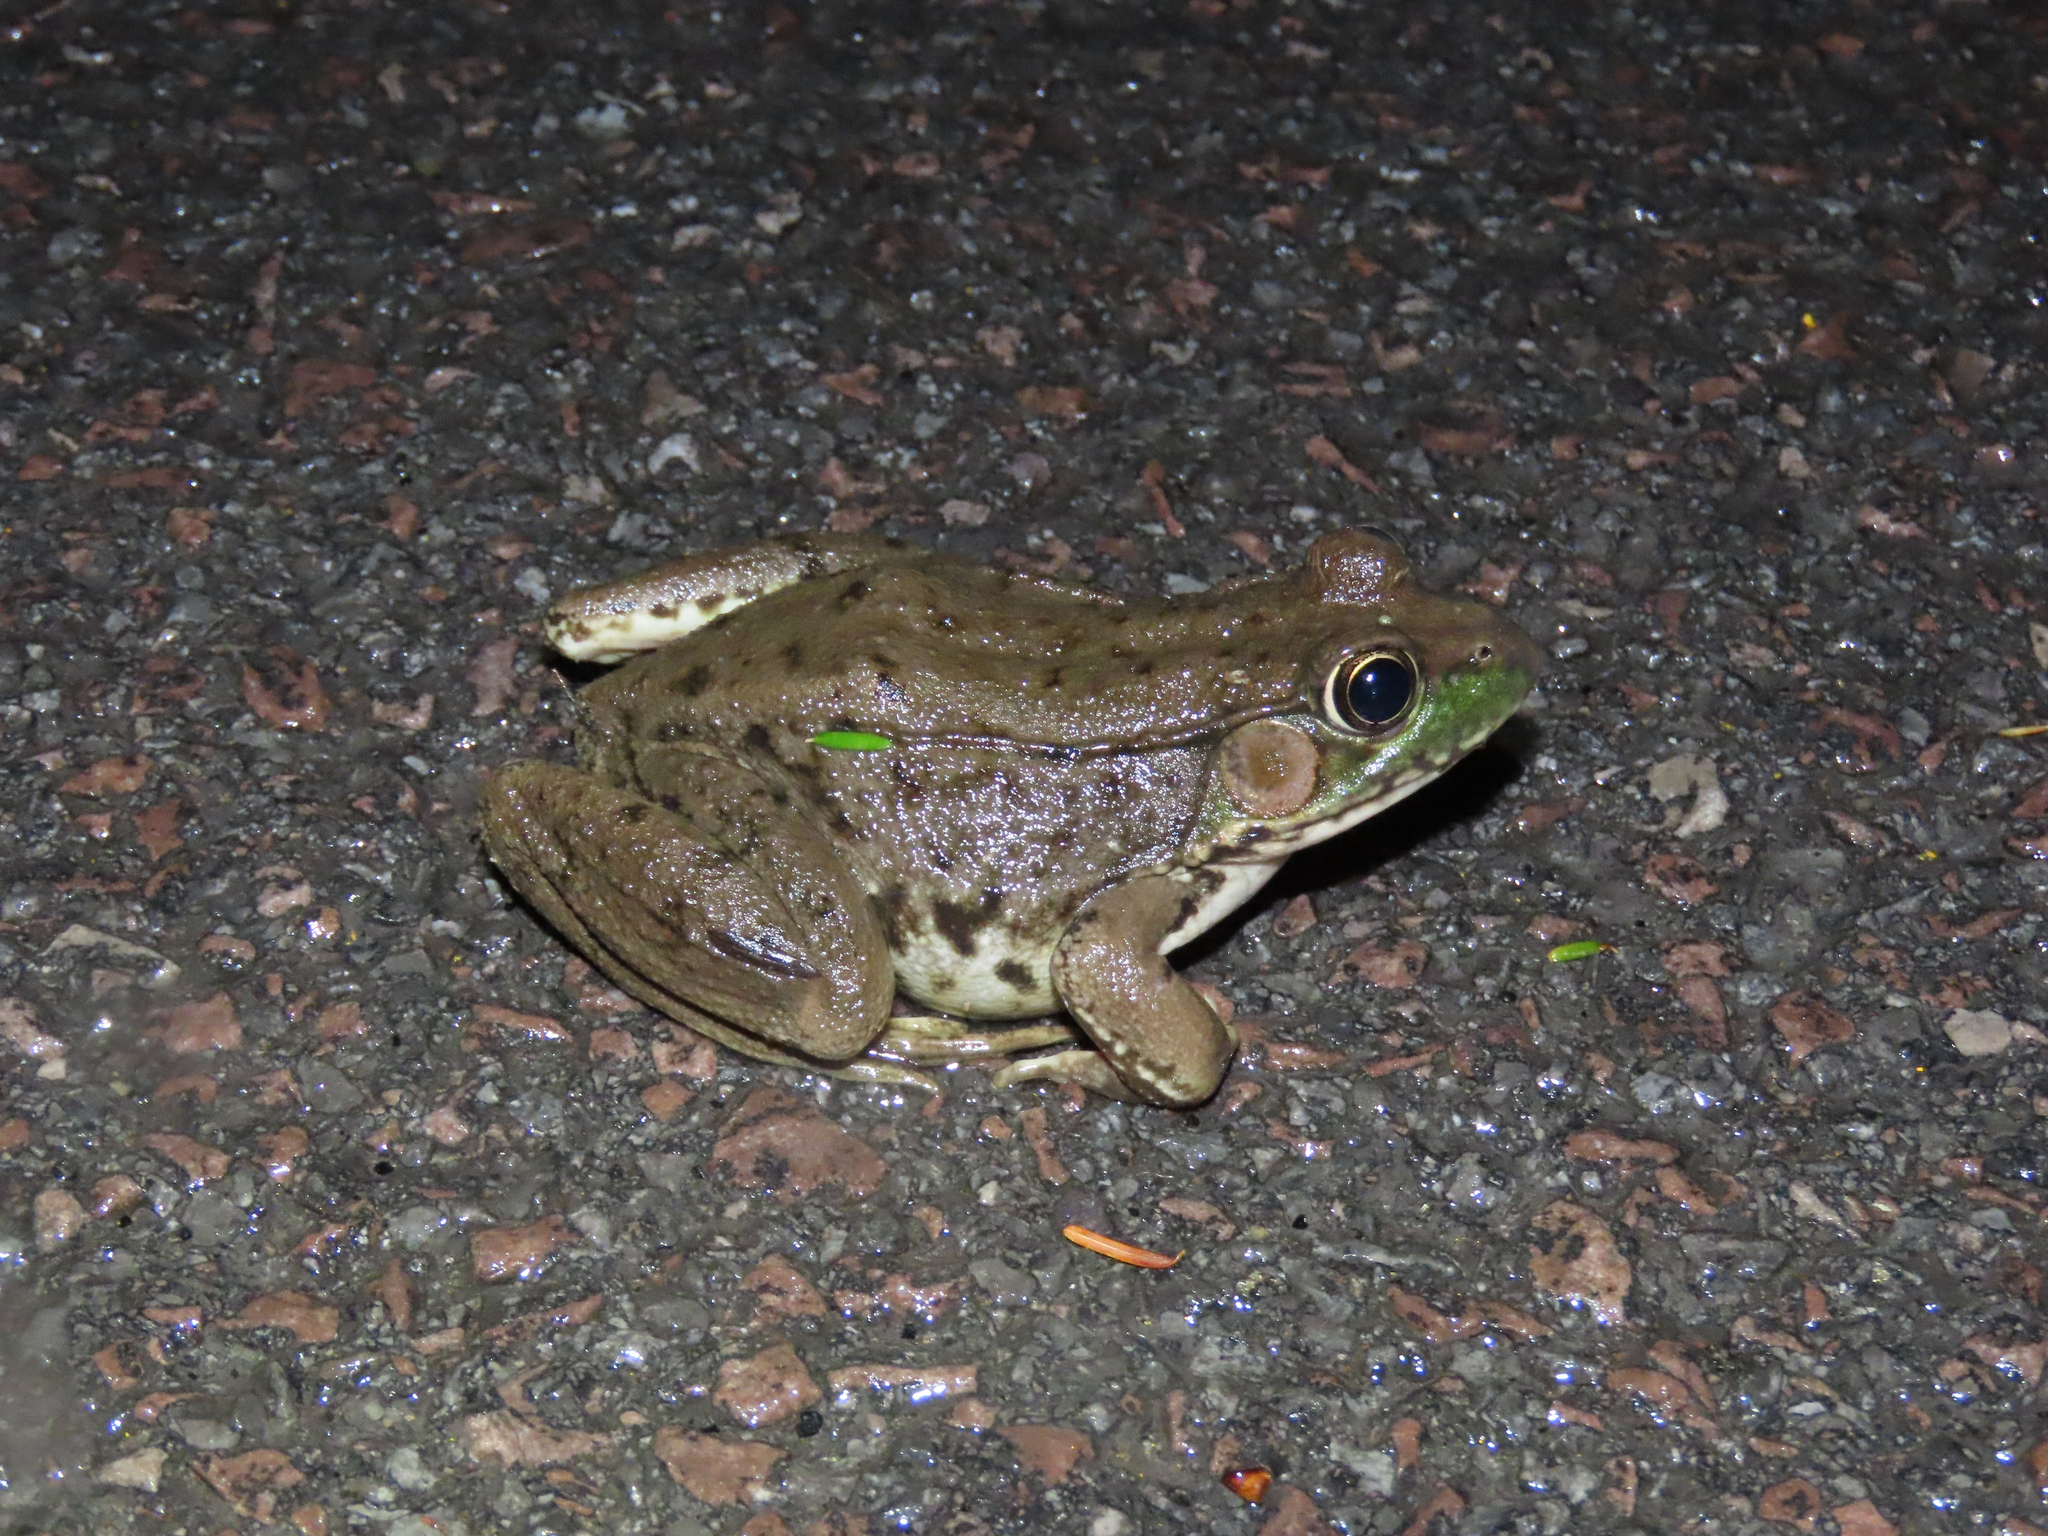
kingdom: Animalia
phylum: Chordata
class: Amphibia
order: Anura
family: Ranidae
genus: Lithobates
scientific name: Lithobates clamitans
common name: Green frog
